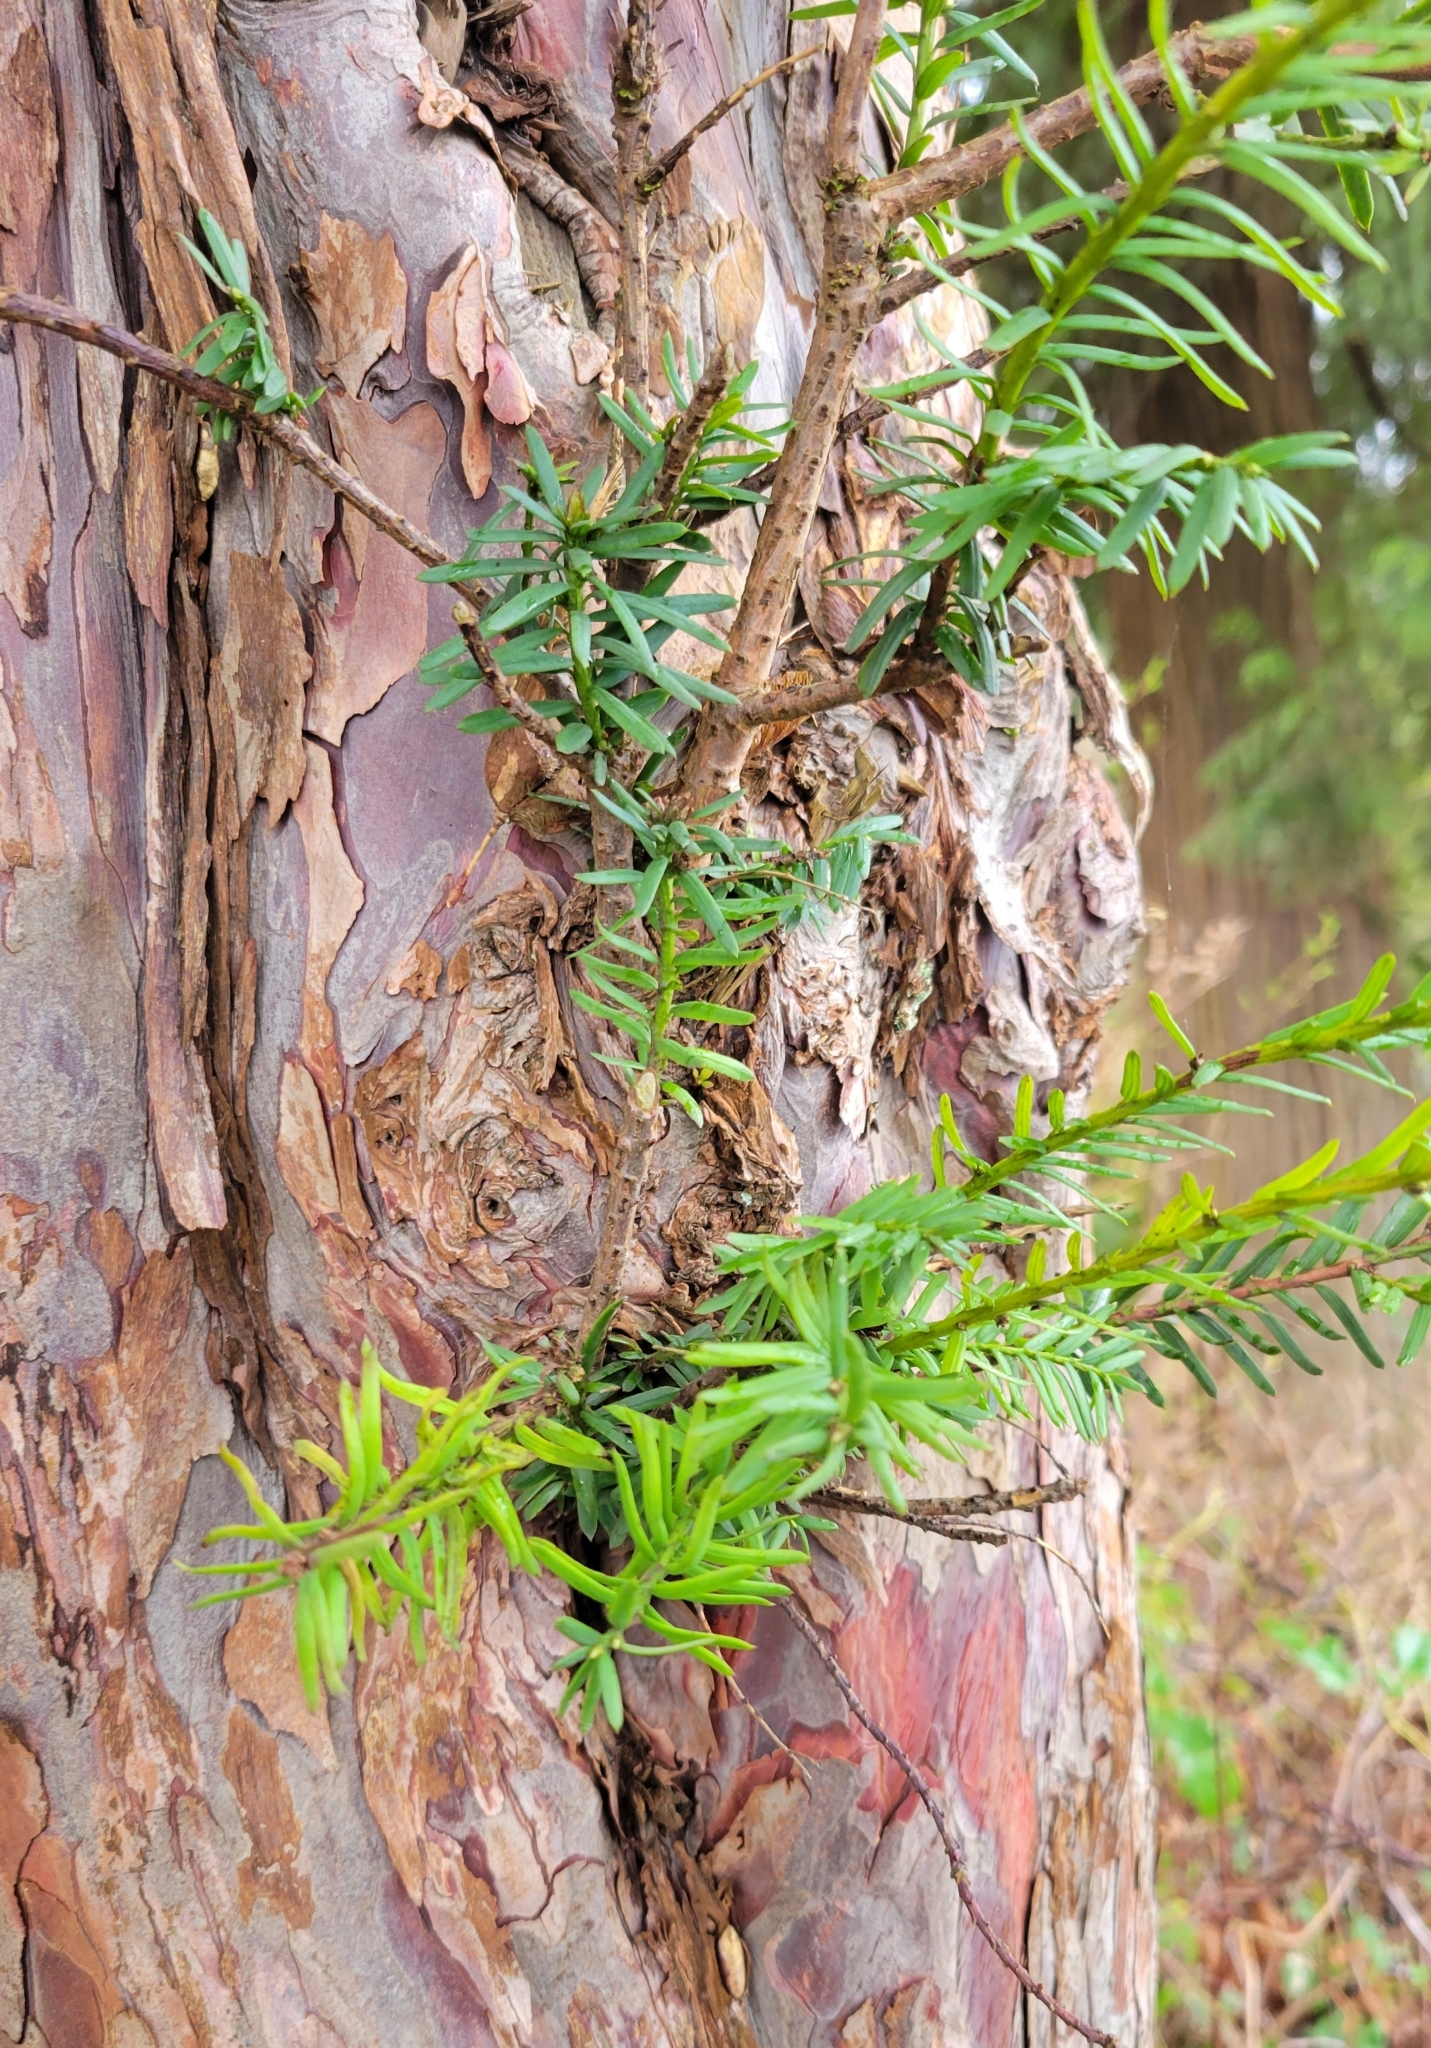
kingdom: Plantae
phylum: Tracheophyta
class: Pinopsida
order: Pinales
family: Taxaceae
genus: Taxus
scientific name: Taxus brevifolia
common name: Pacific yew
